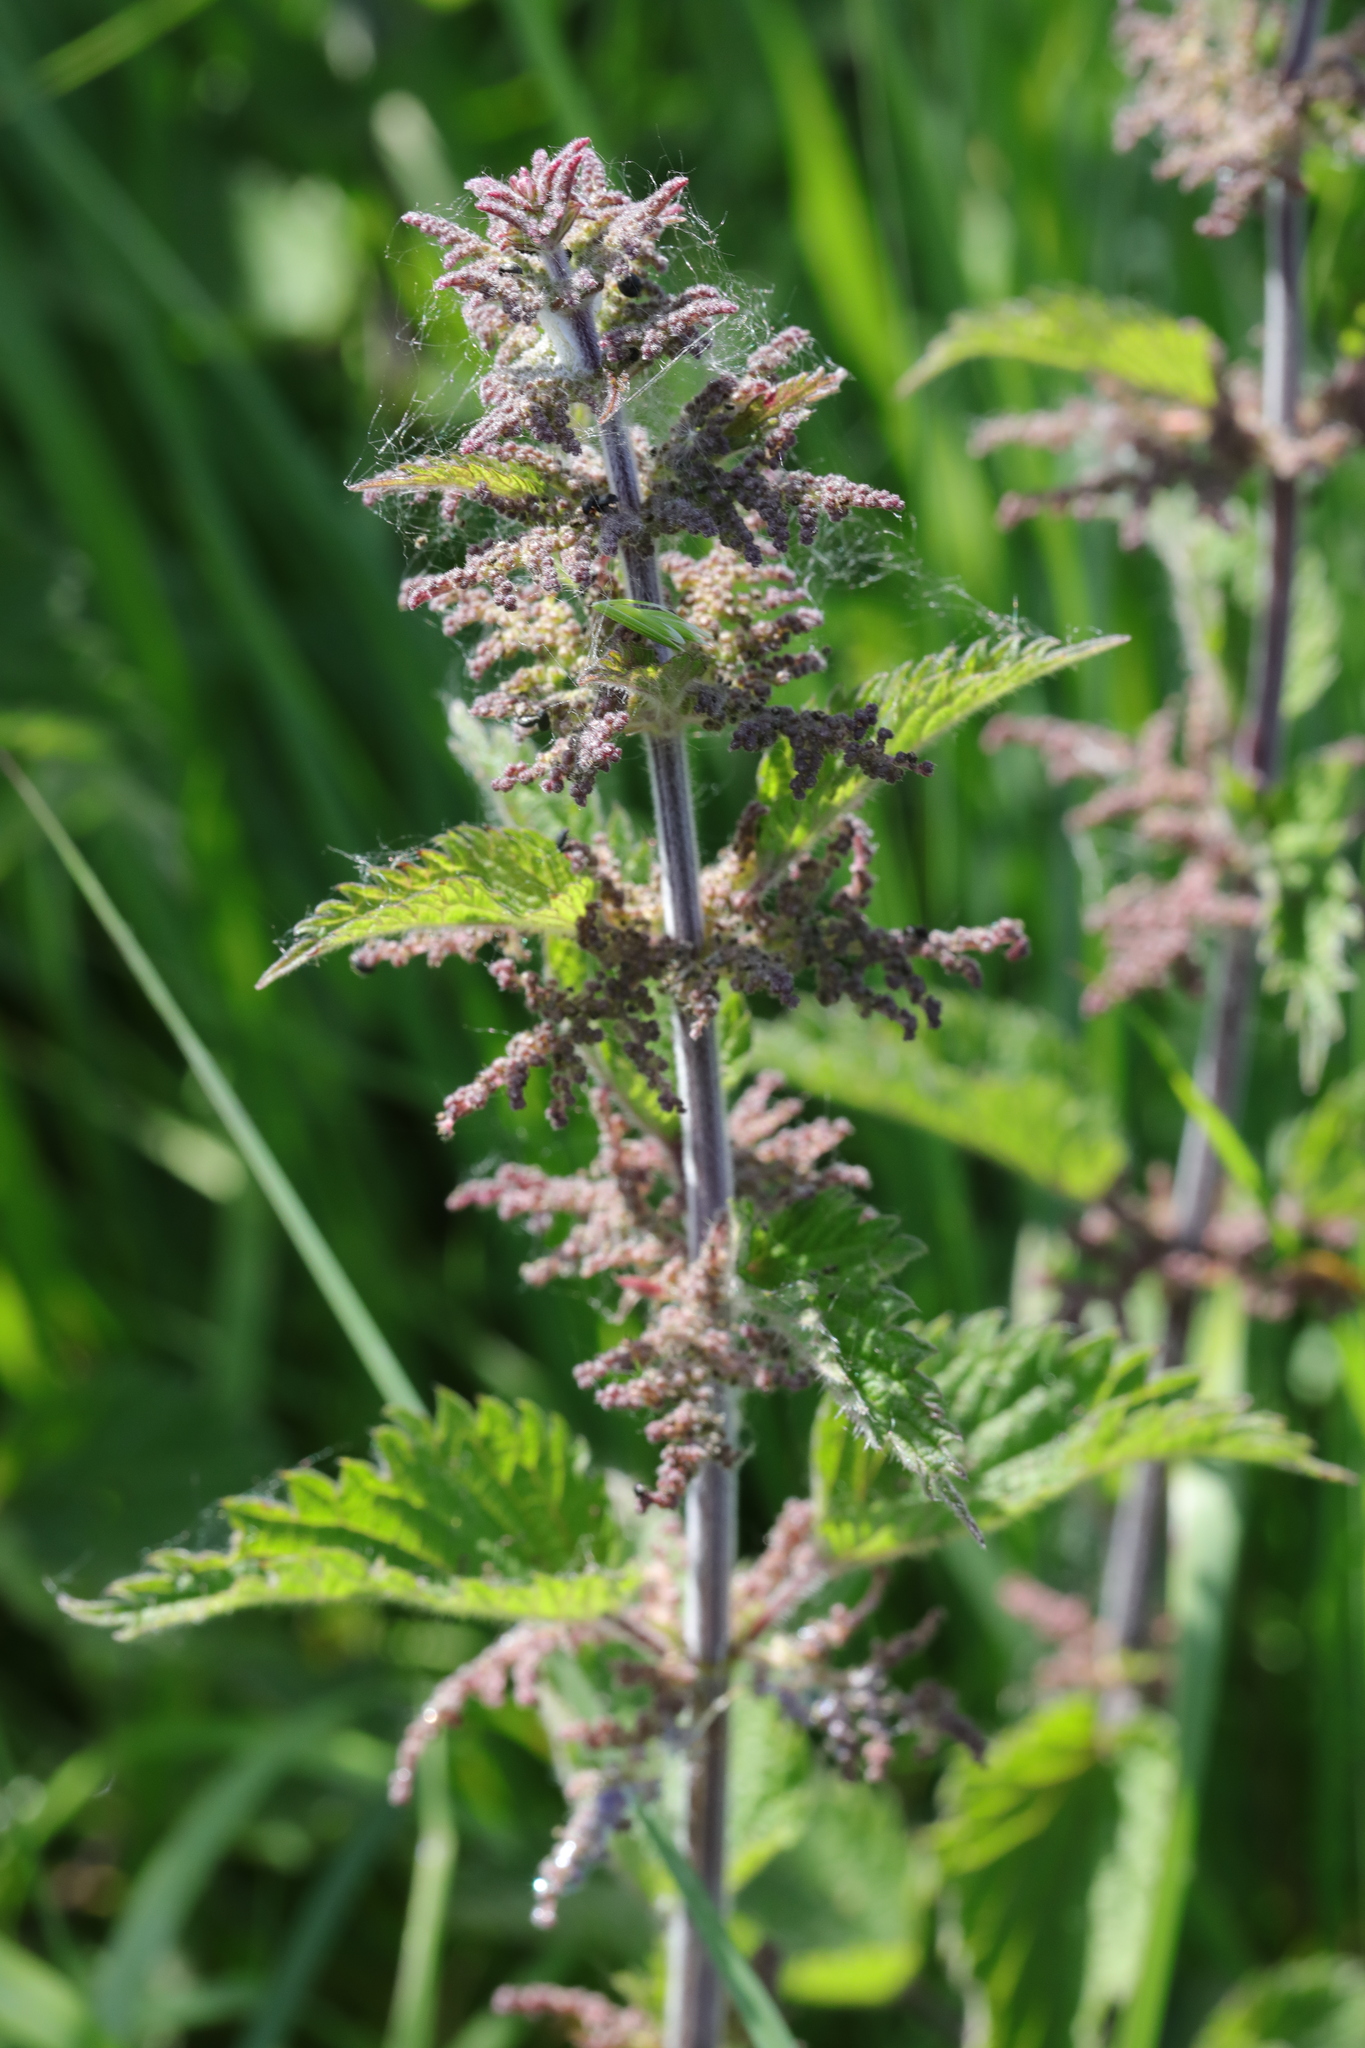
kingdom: Plantae
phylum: Tracheophyta
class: Magnoliopsida
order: Rosales
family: Urticaceae
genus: Urtica
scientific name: Urtica dioica
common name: Common nettle
